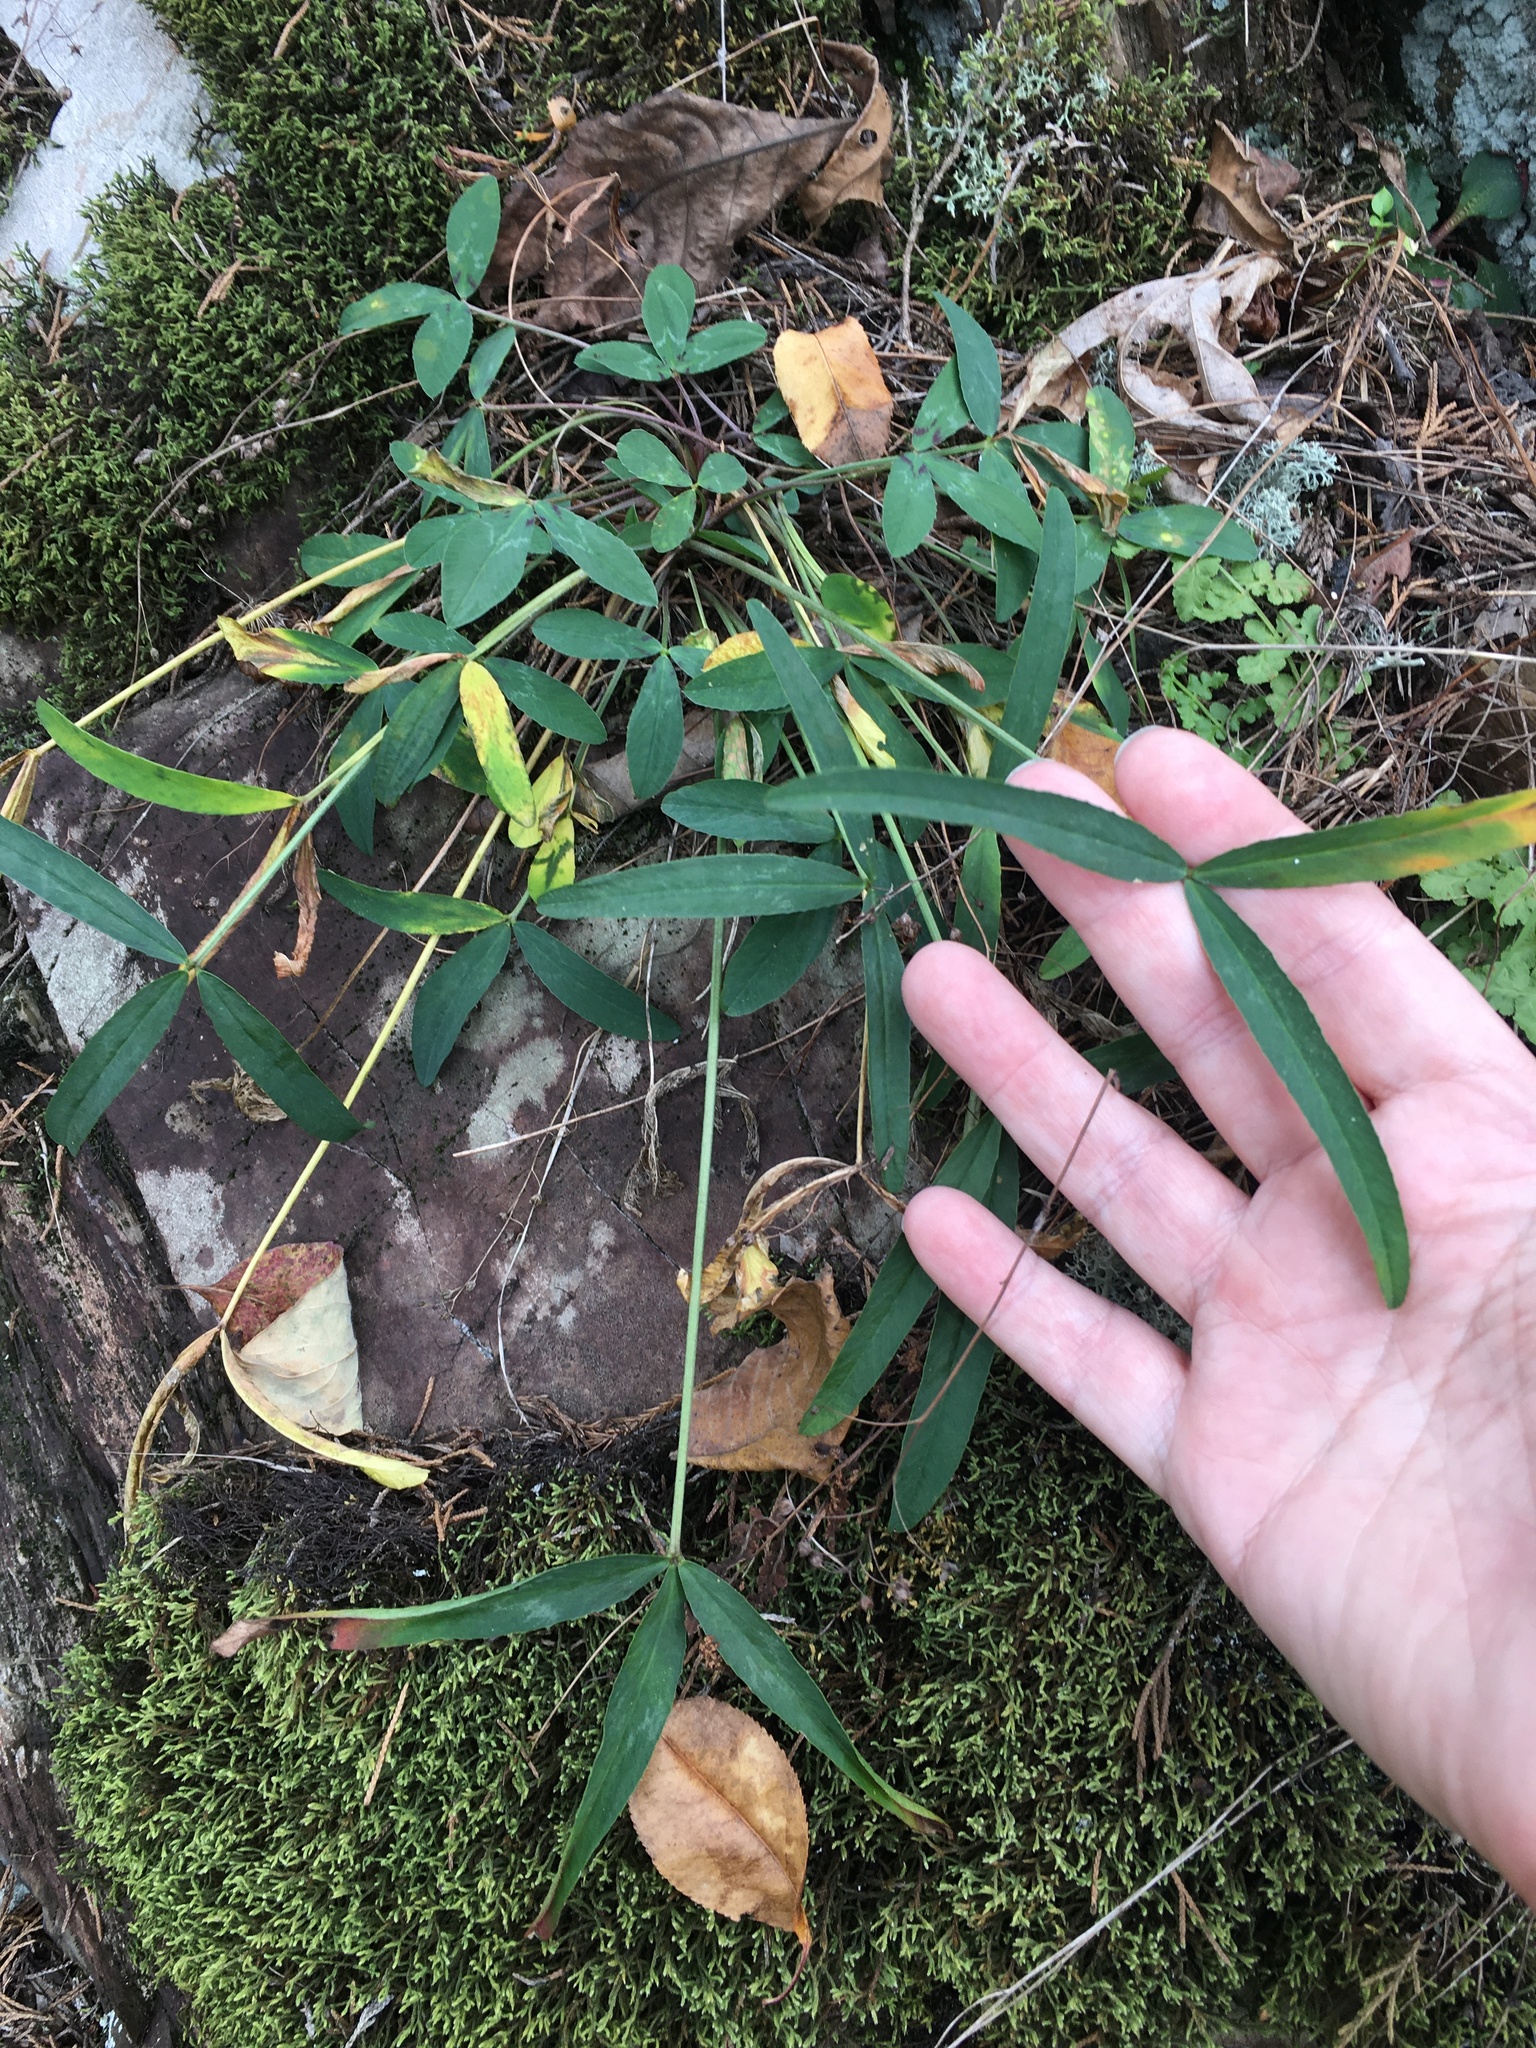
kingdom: Plantae
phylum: Tracheophyta
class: Magnoliopsida
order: Fabales
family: Fabaceae
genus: Trifolium
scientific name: Trifolium virginicum
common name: Kate's mountain clover
